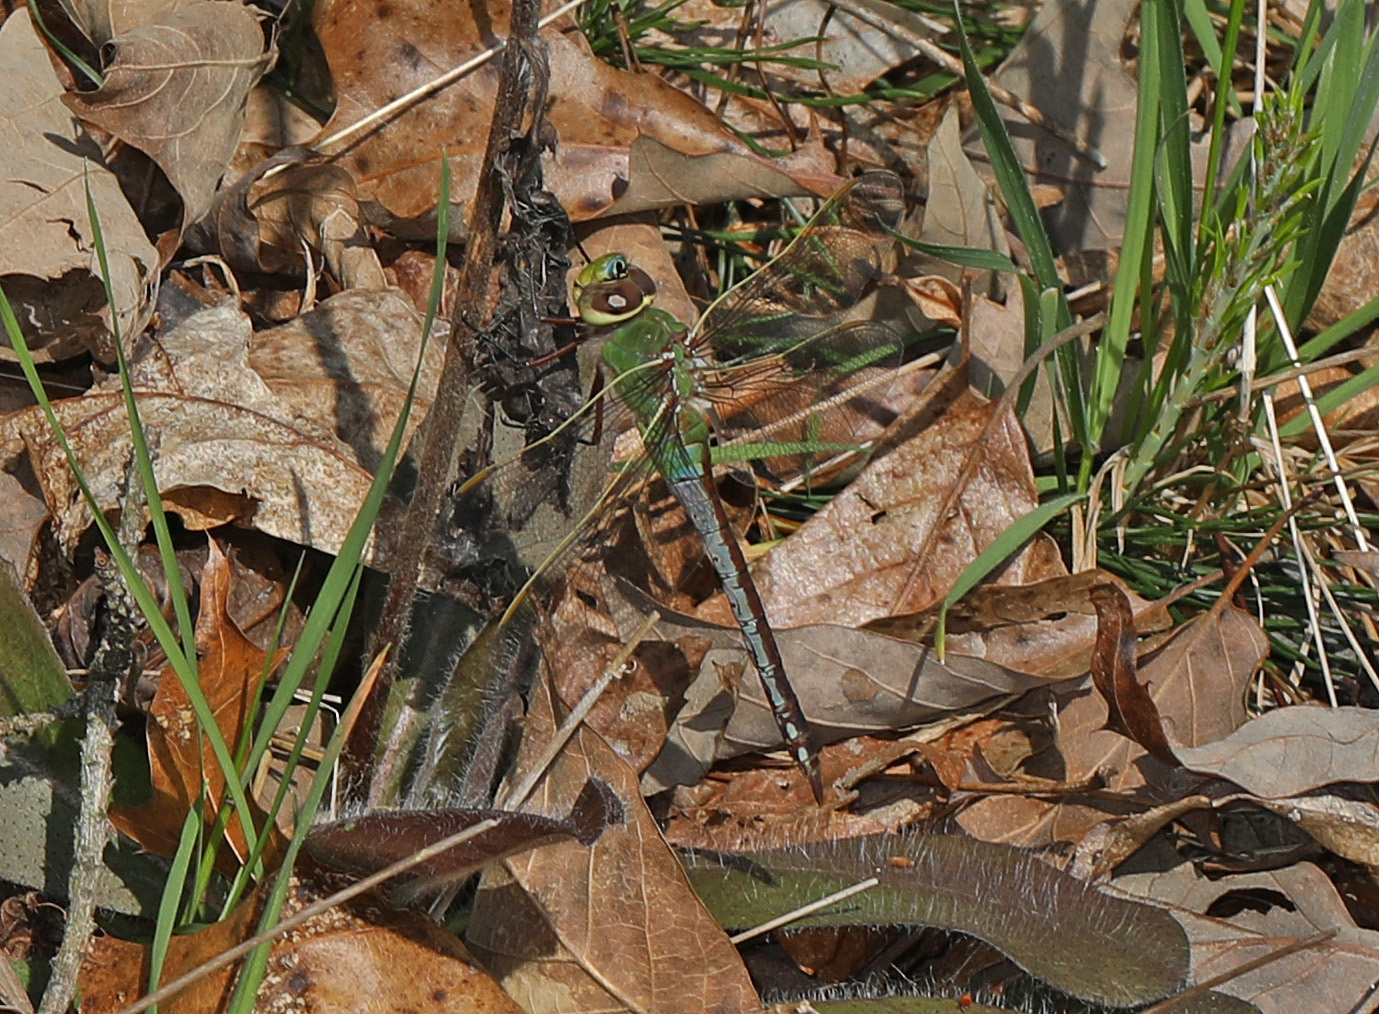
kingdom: Animalia
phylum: Arthropoda
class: Insecta
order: Odonata
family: Aeshnidae
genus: Anax
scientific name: Anax junius
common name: Common green darner
